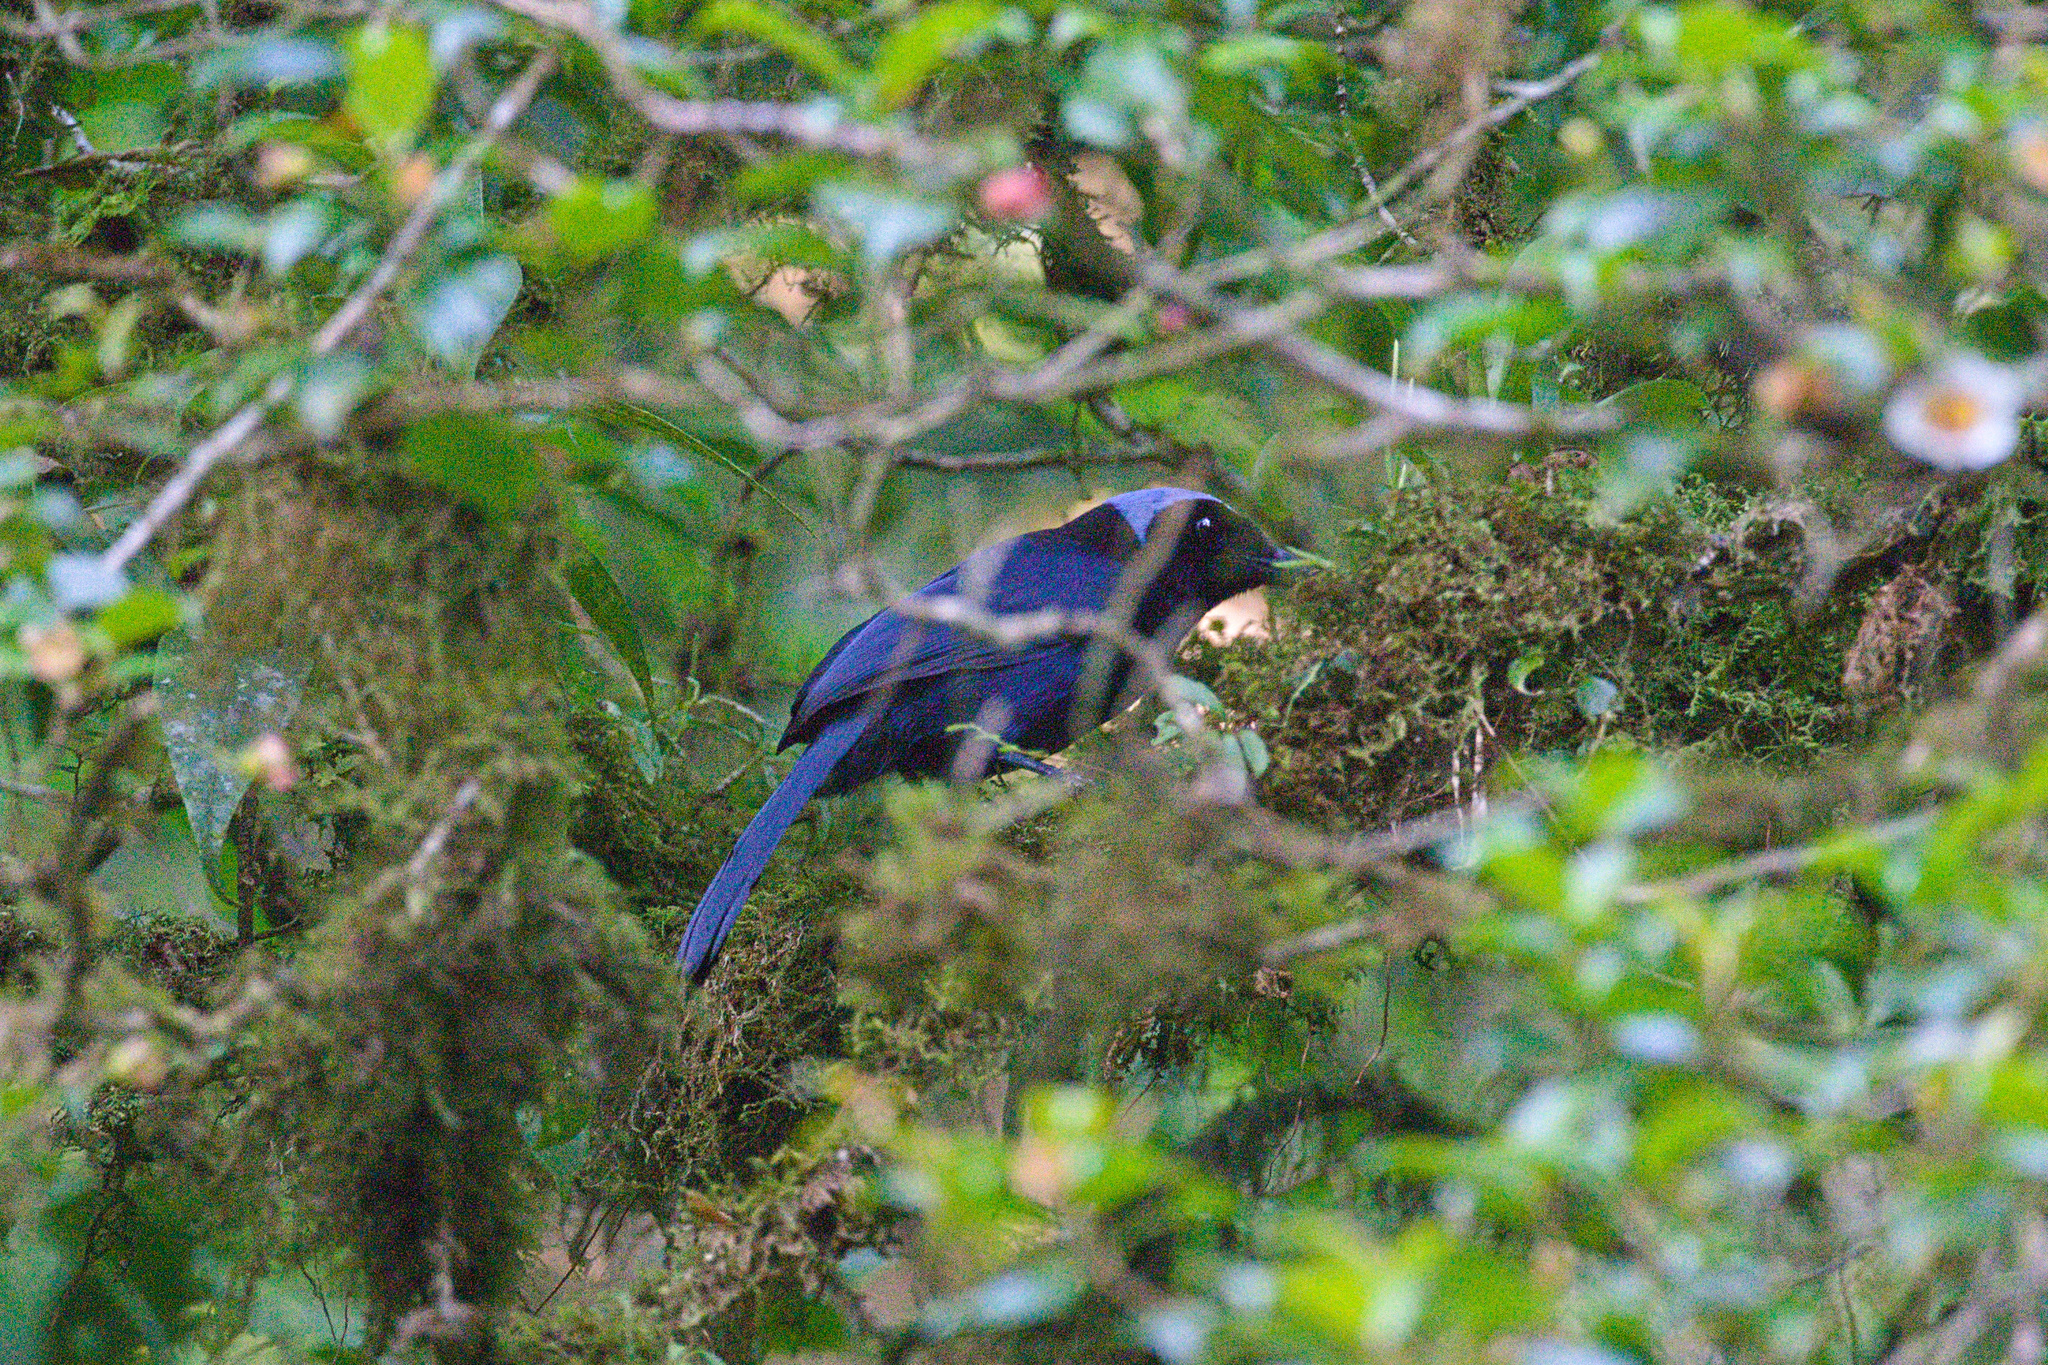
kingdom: Animalia
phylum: Chordata
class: Aves
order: Passeriformes
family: Corvidae
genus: Cyanolyca
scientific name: Cyanolyca cucullata
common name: Azure-hooded jay
